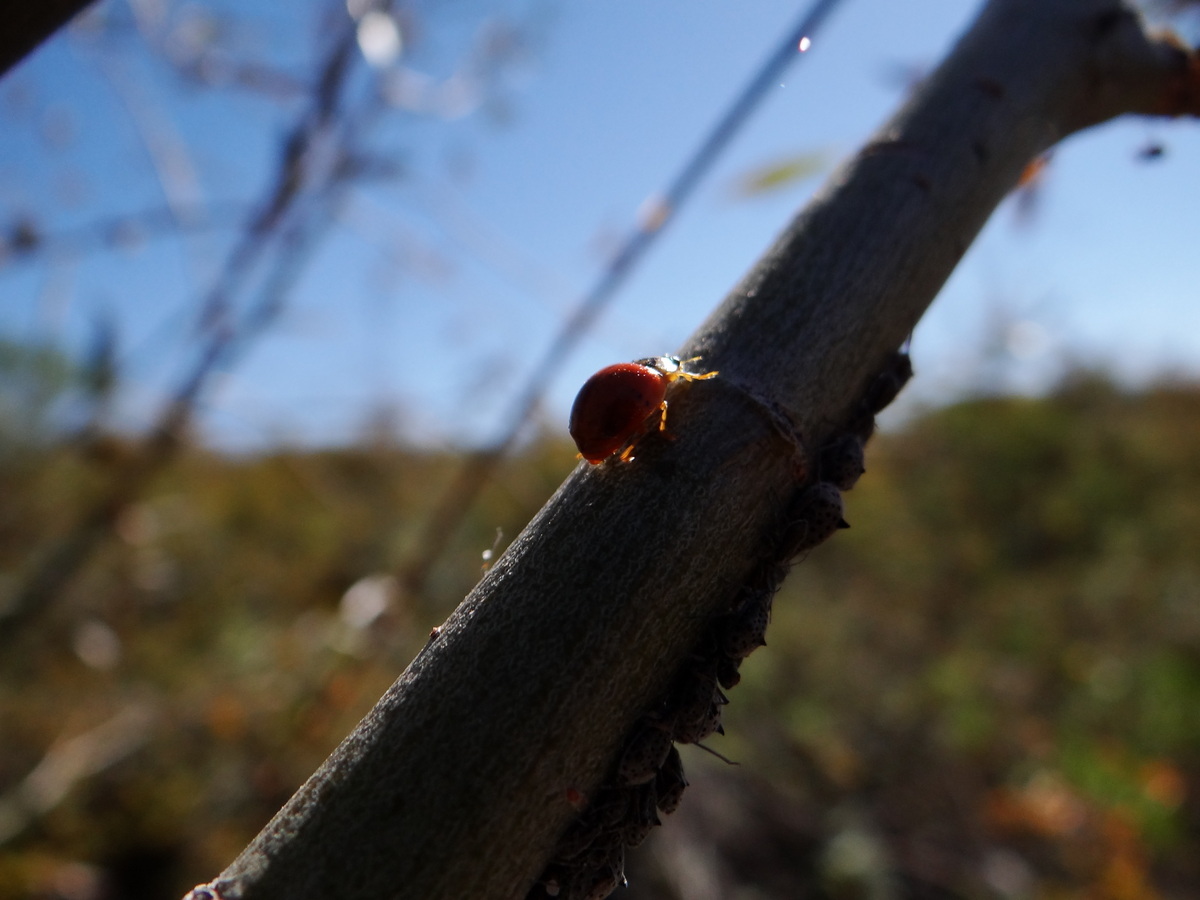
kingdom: Animalia
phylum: Arthropoda
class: Insecta
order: Coleoptera
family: Coccinellidae
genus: Harmonia
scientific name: Harmonia axyridis
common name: Harlequin ladybird
